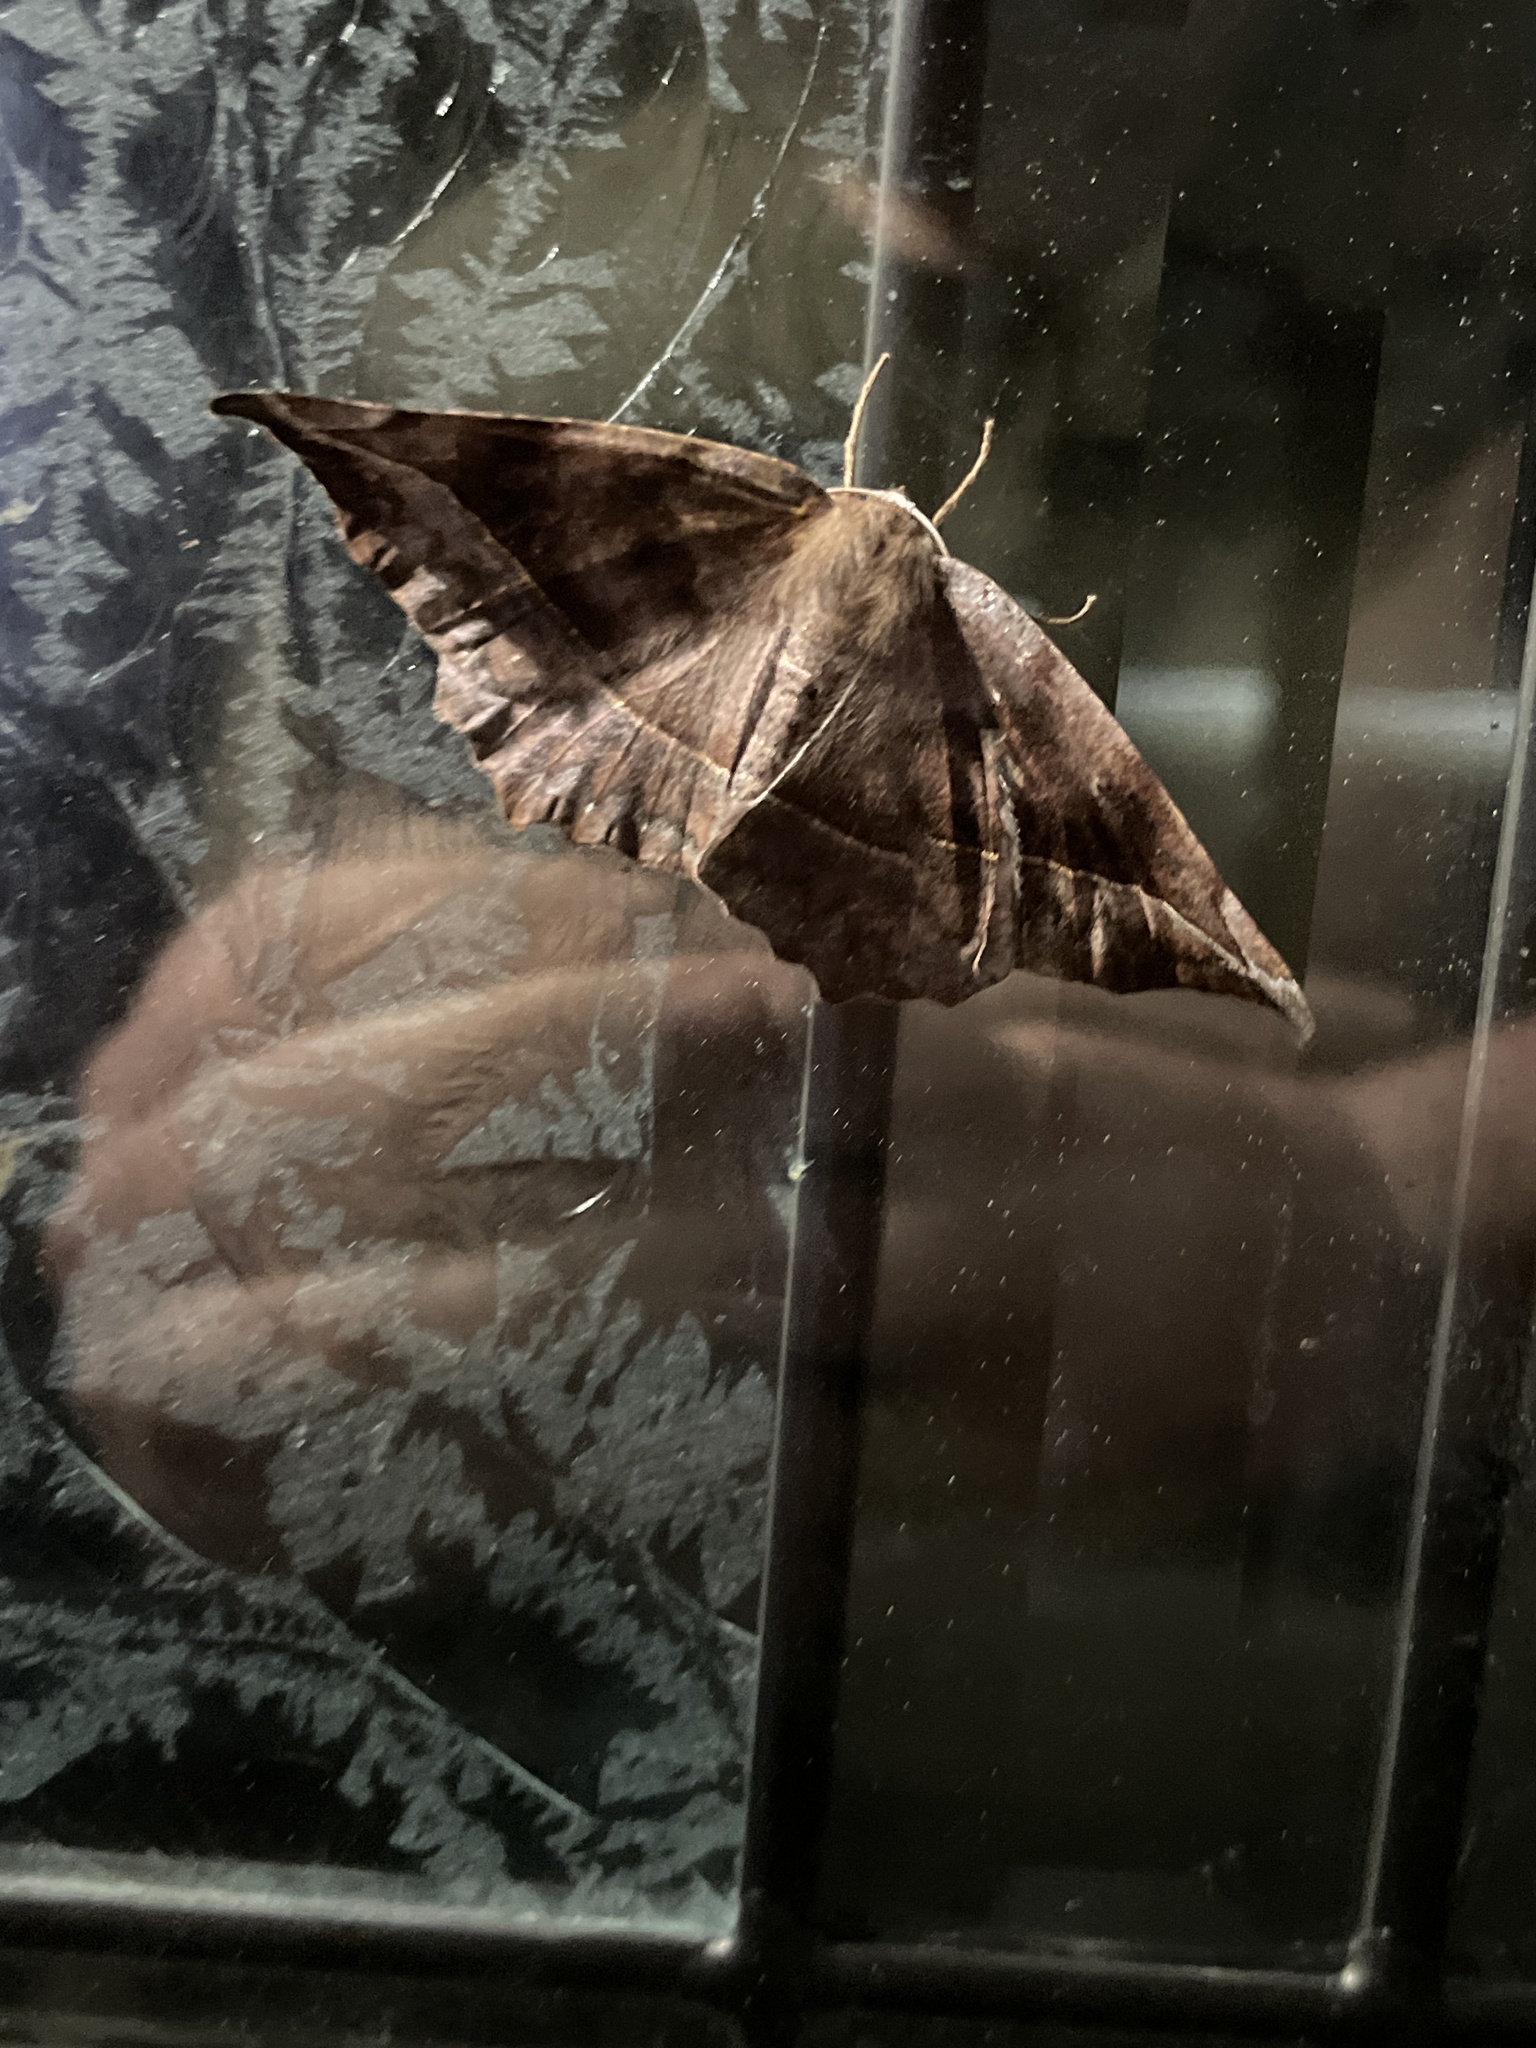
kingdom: Animalia
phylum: Arthropoda
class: Insecta
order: Lepidoptera
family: Geometridae
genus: Eutrapela
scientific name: Eutrapela clemataria
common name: Curved-toothed geometer
